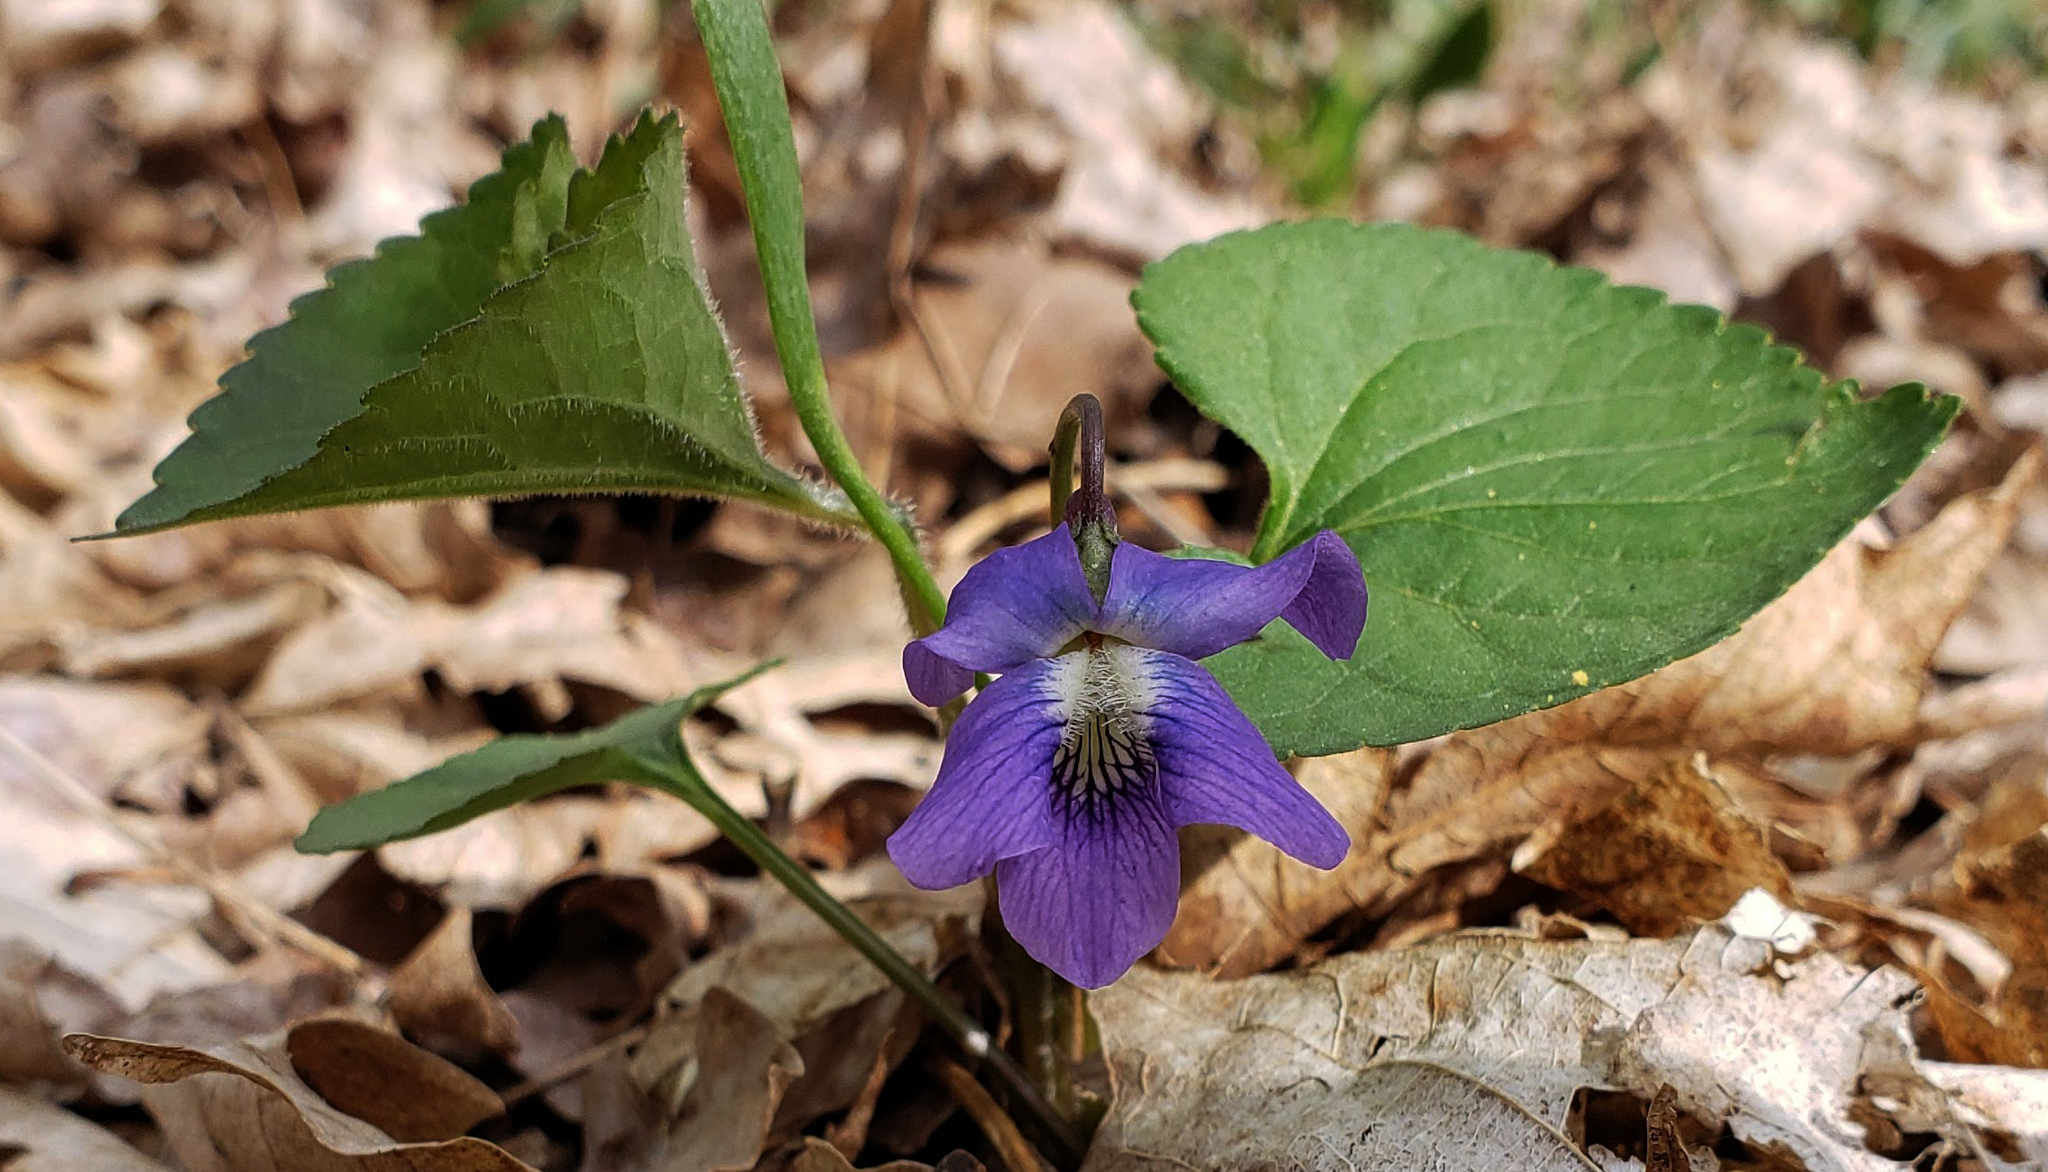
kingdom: Plantae
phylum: Tracheophyta
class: Magnoliopsida
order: Malpighiales
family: Violaceae
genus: Viola
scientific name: Viola sororia
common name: Dooryard violet
